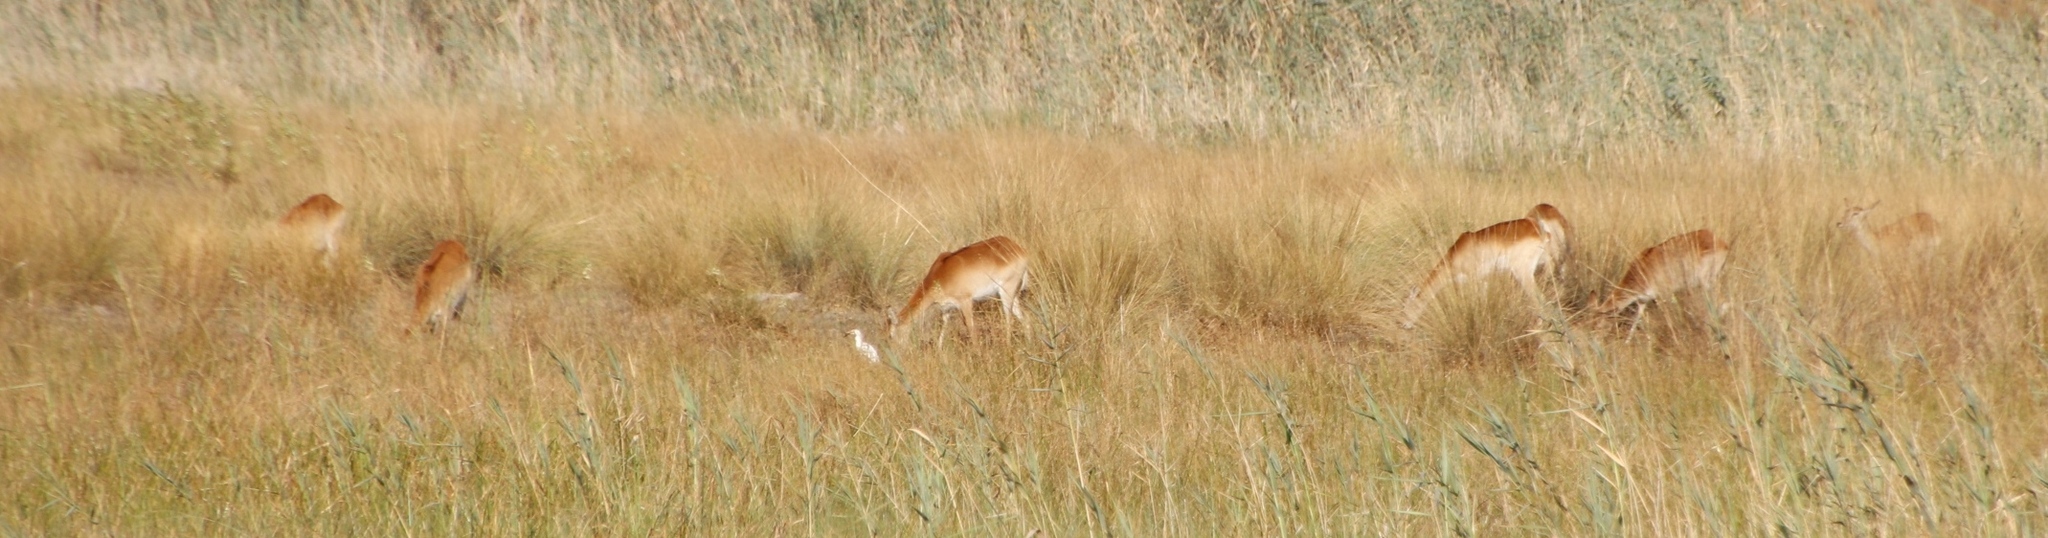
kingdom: Animalia
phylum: Chordata
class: Mammalia
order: Artiodactyla
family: Bovidae
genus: Kobus
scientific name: Kobus leche
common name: Lechwe
